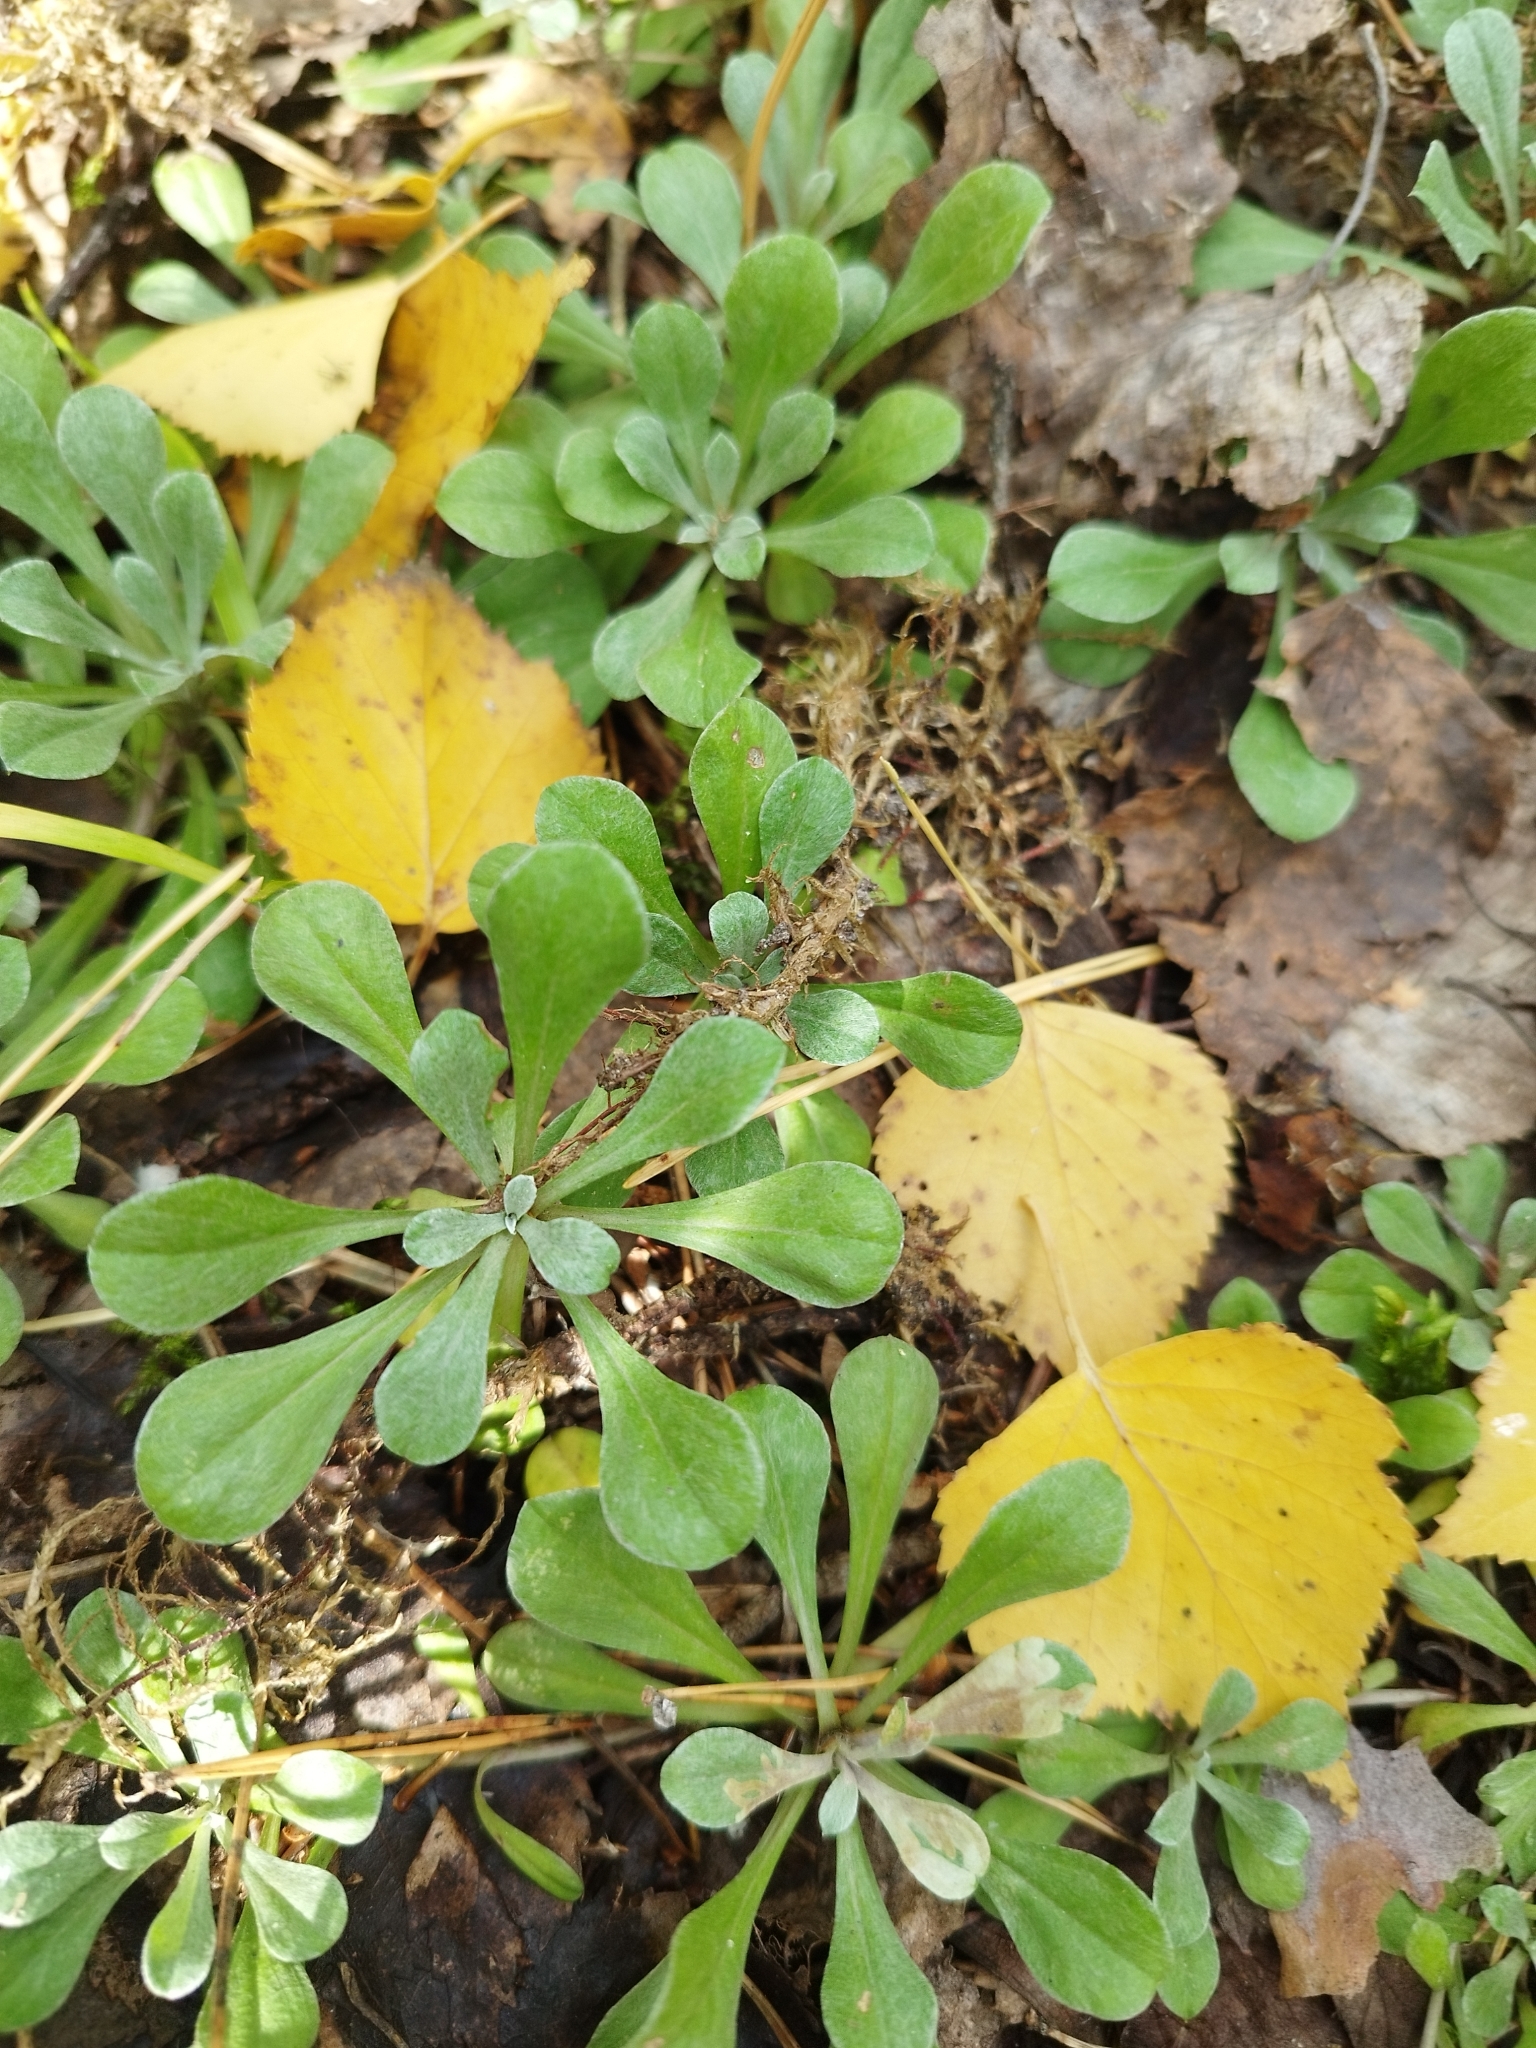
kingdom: Plantae
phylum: Tracheophyta
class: Magnoliopsida
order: Asterales
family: Asteraceae
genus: Antennaria
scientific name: Antennaria dioica
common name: Mountain everlasting
